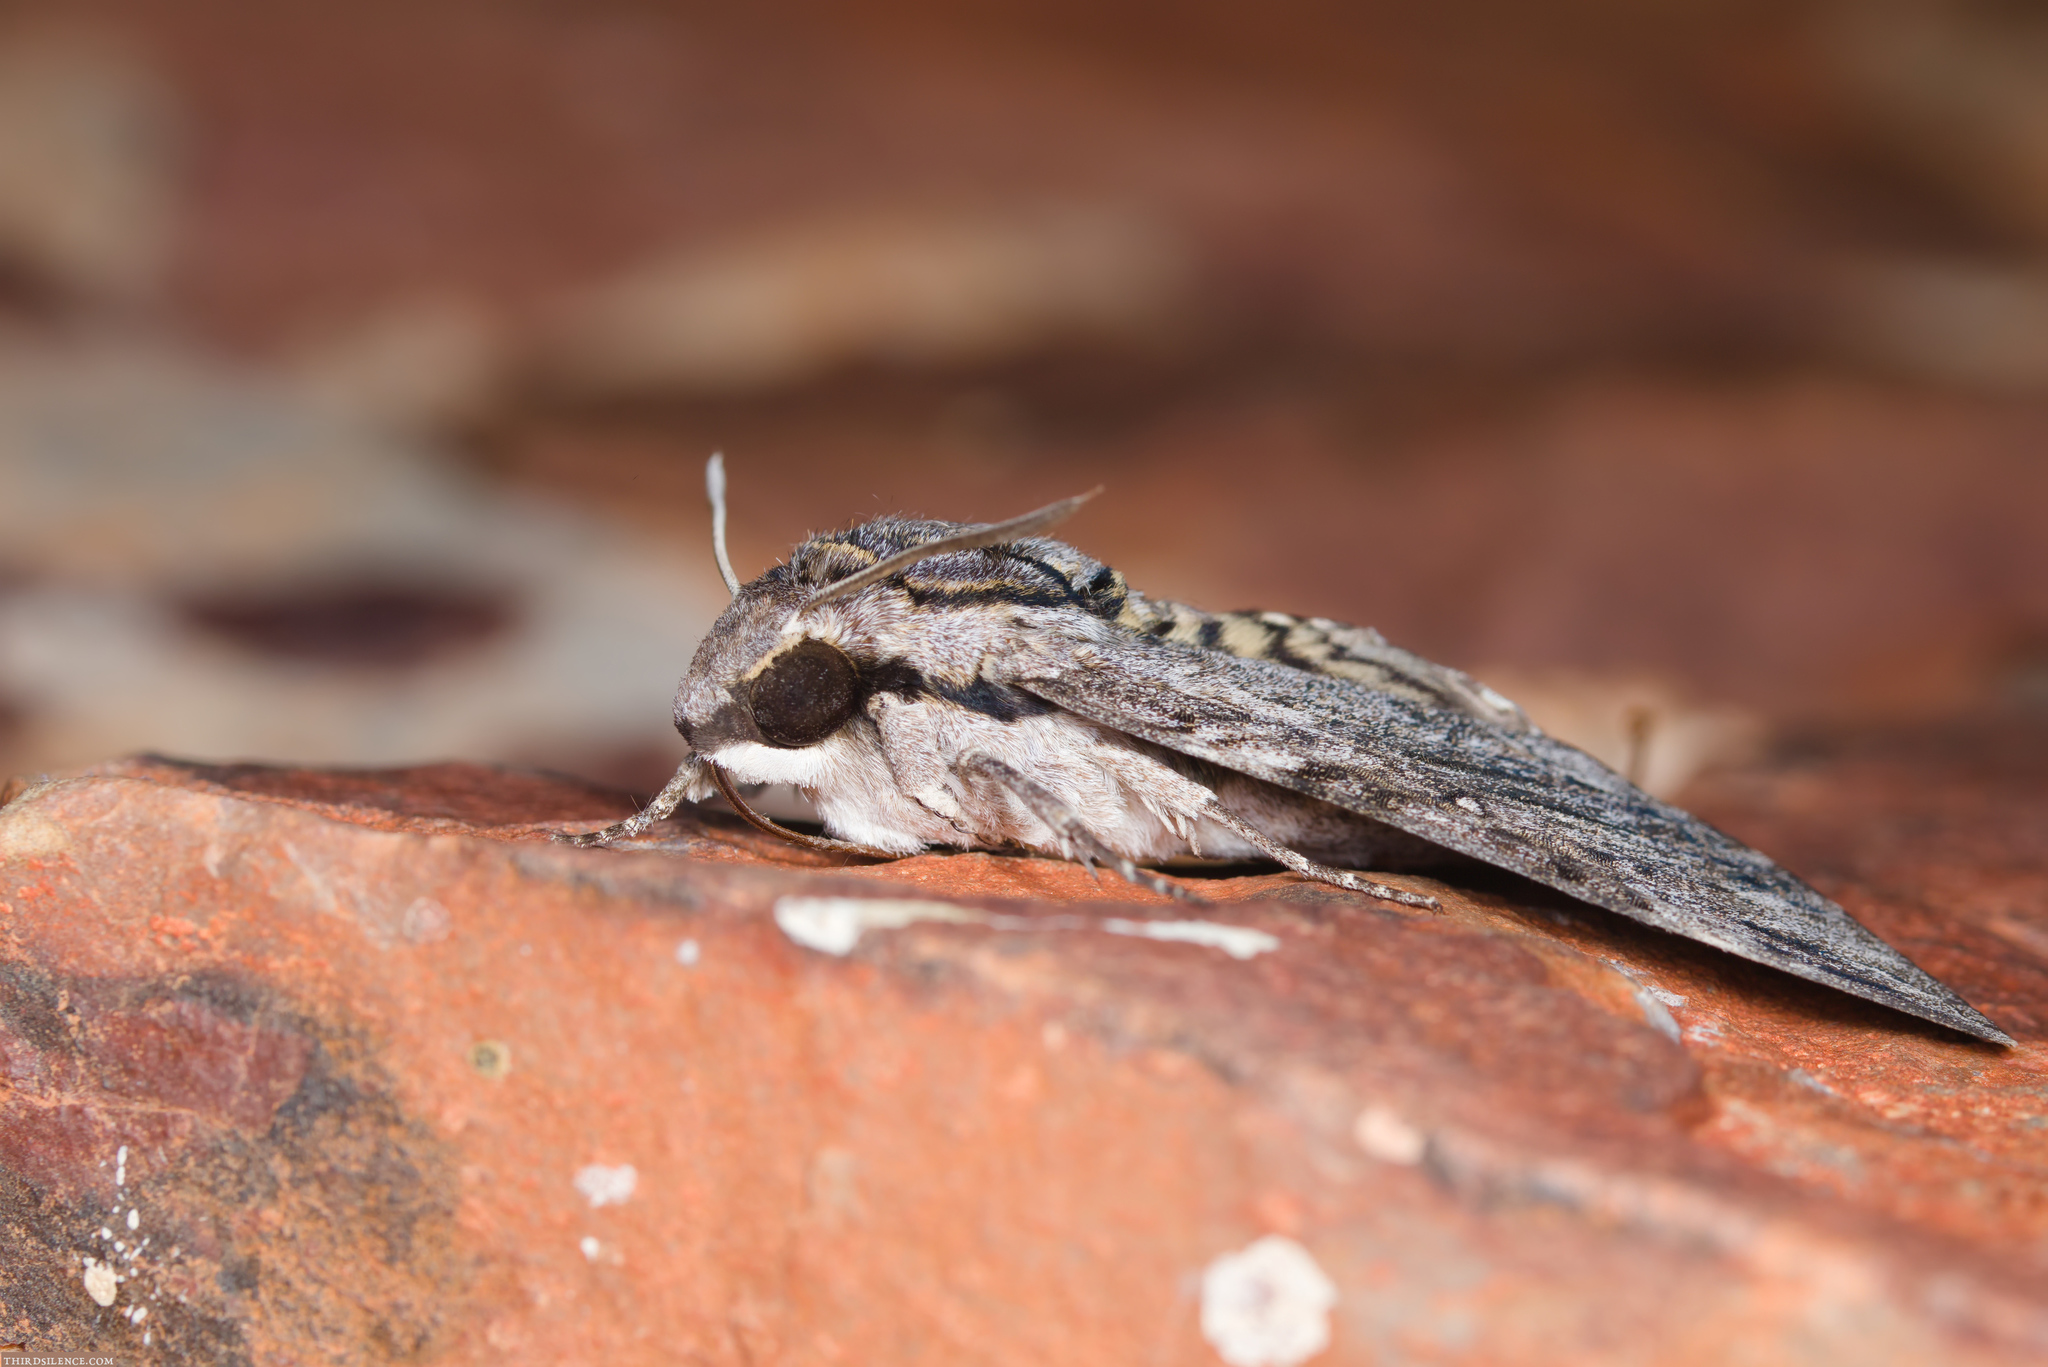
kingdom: Animalia
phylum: Arthropoda
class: Insecta
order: Lepidoptera
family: Sphingidae
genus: Agrius
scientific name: Agrius godarti
